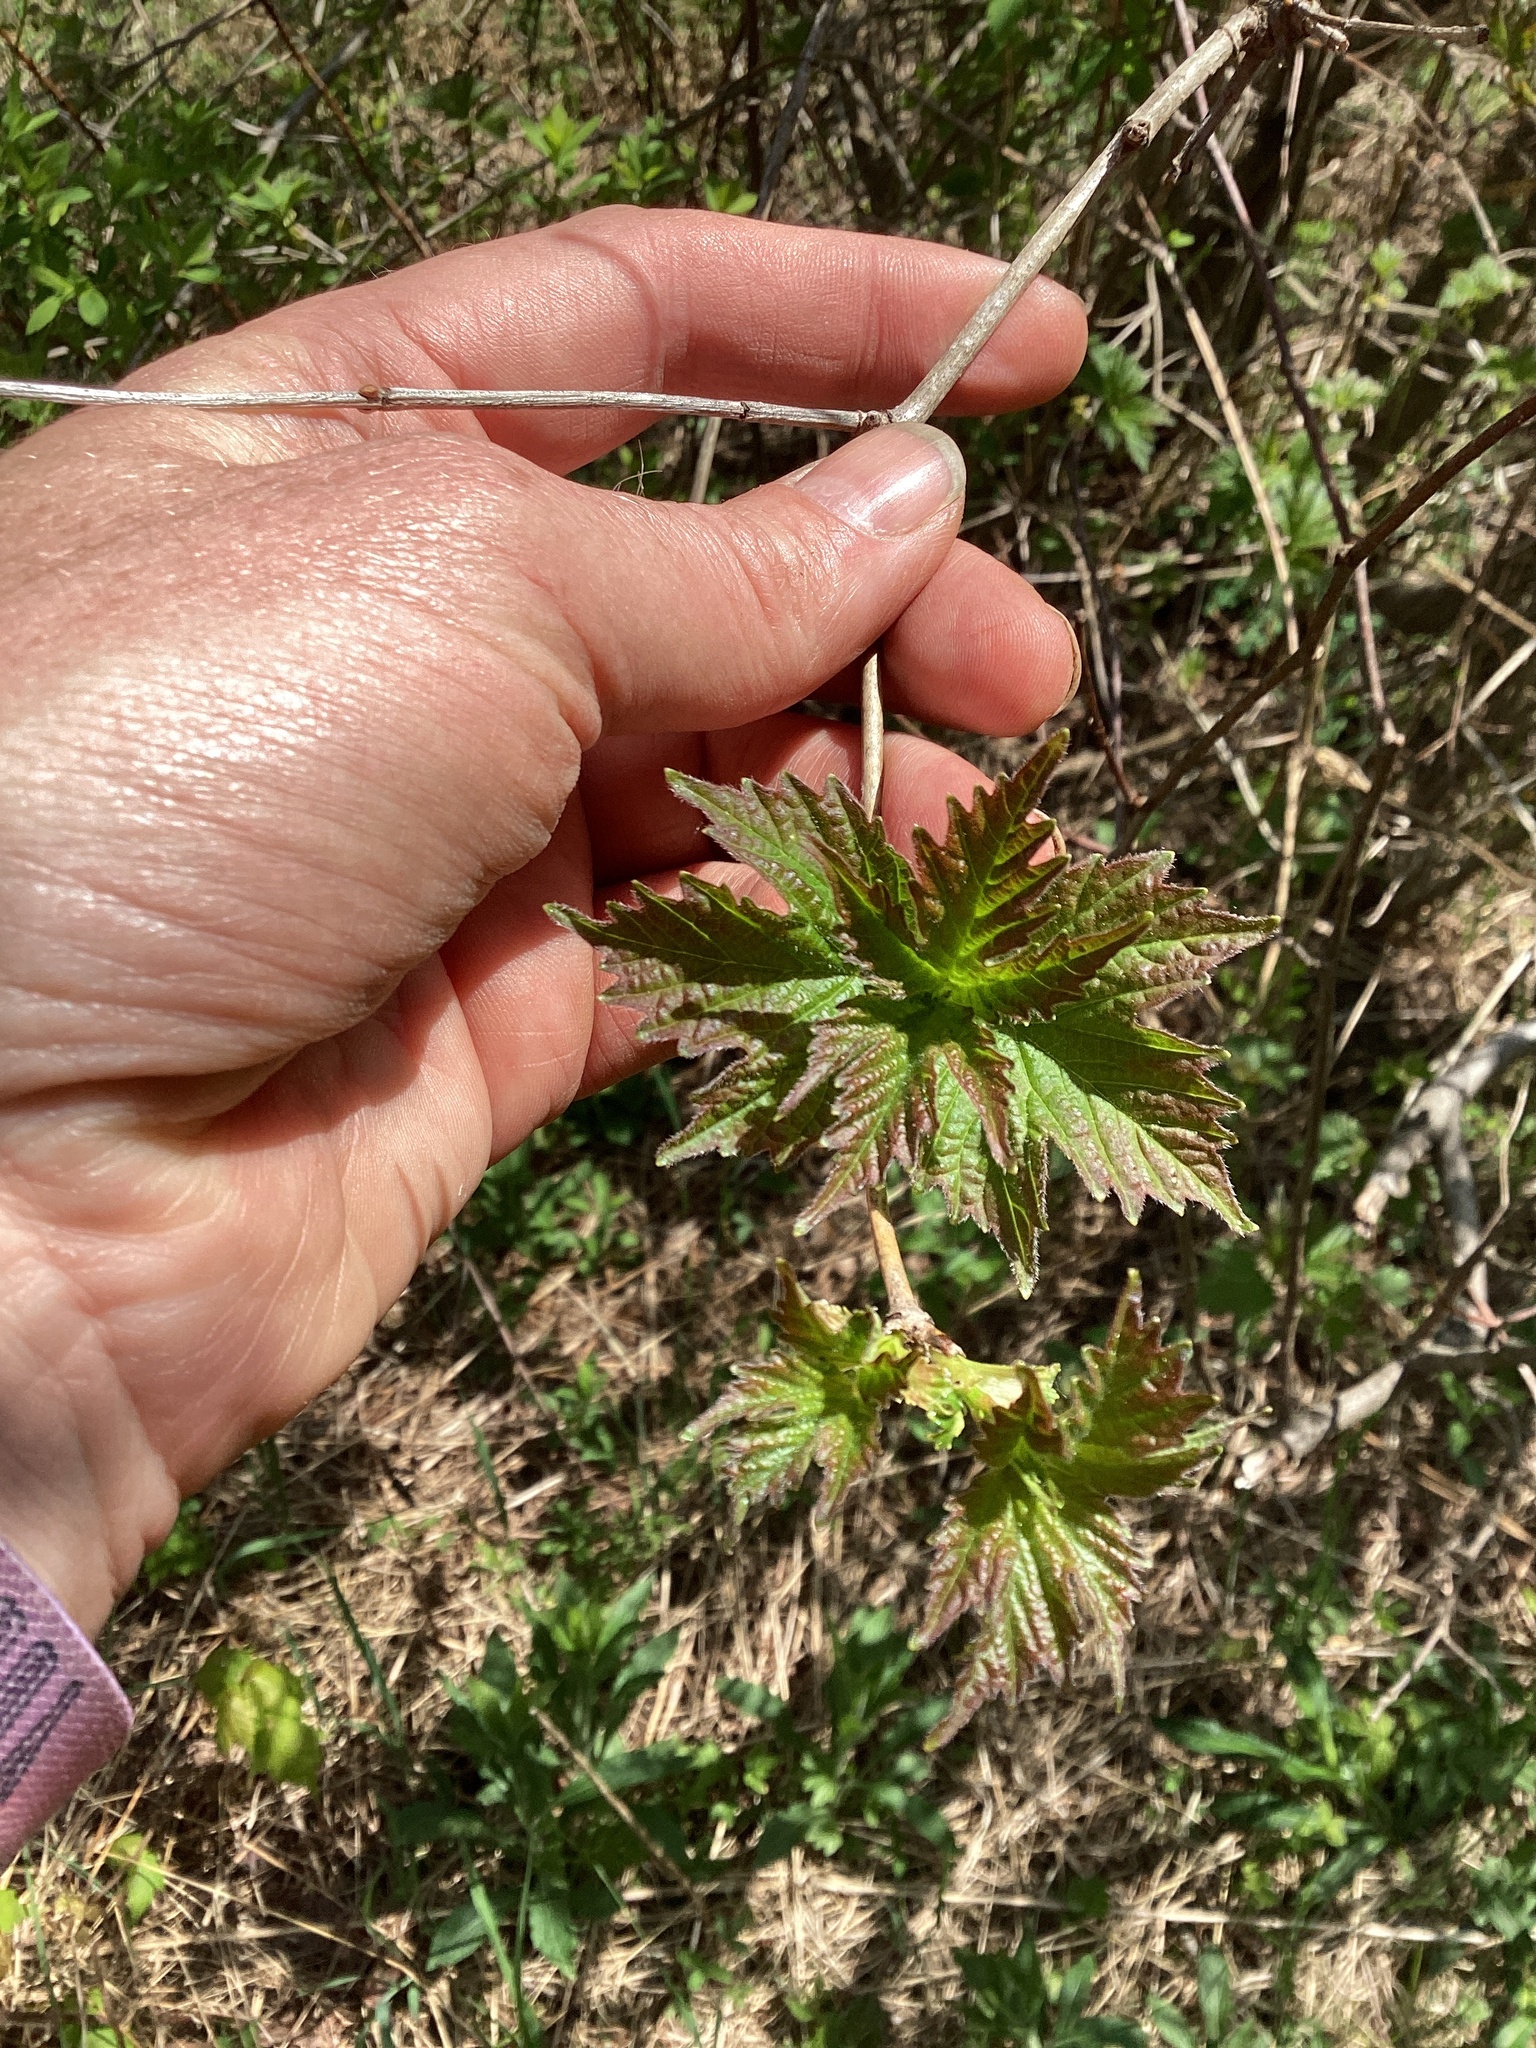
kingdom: Plantae
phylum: Tracheophyta
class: Magnoliopsida
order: Dipsacales
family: Viburnaceae
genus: Viburnum
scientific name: Viburnum opulus
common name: Guelder-rose
